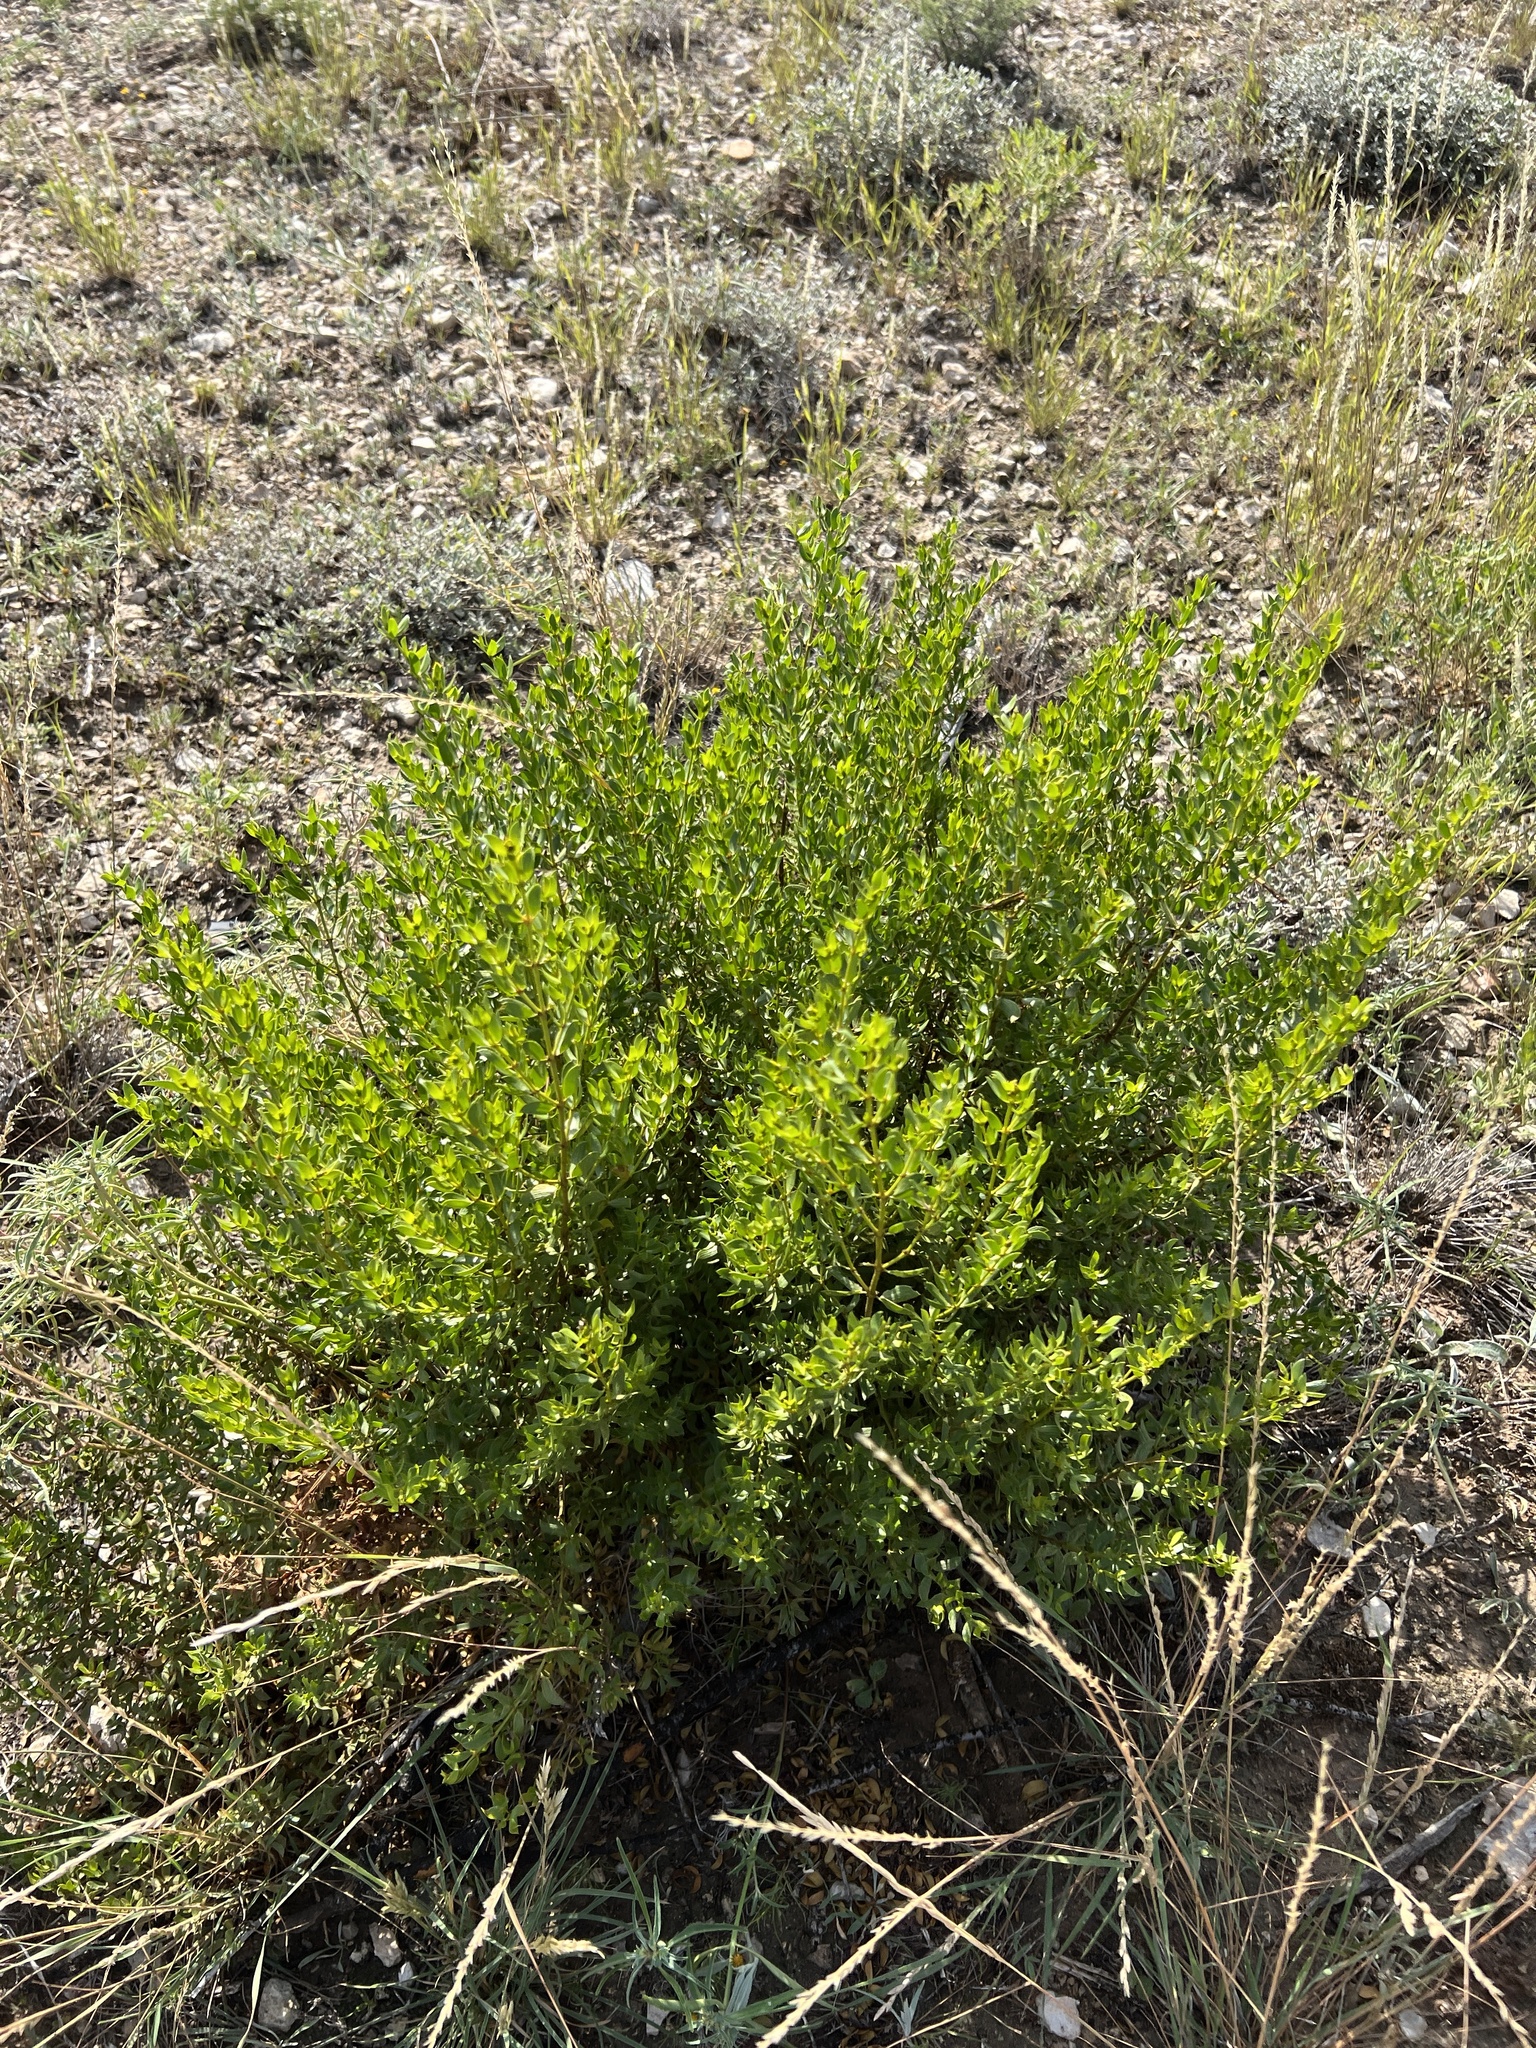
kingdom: Plantae
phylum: Tracheophyta
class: Magnoliopsida
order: Zygophyllales
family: Zygophyllaceae
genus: Larrea
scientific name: Larrea tridentata
